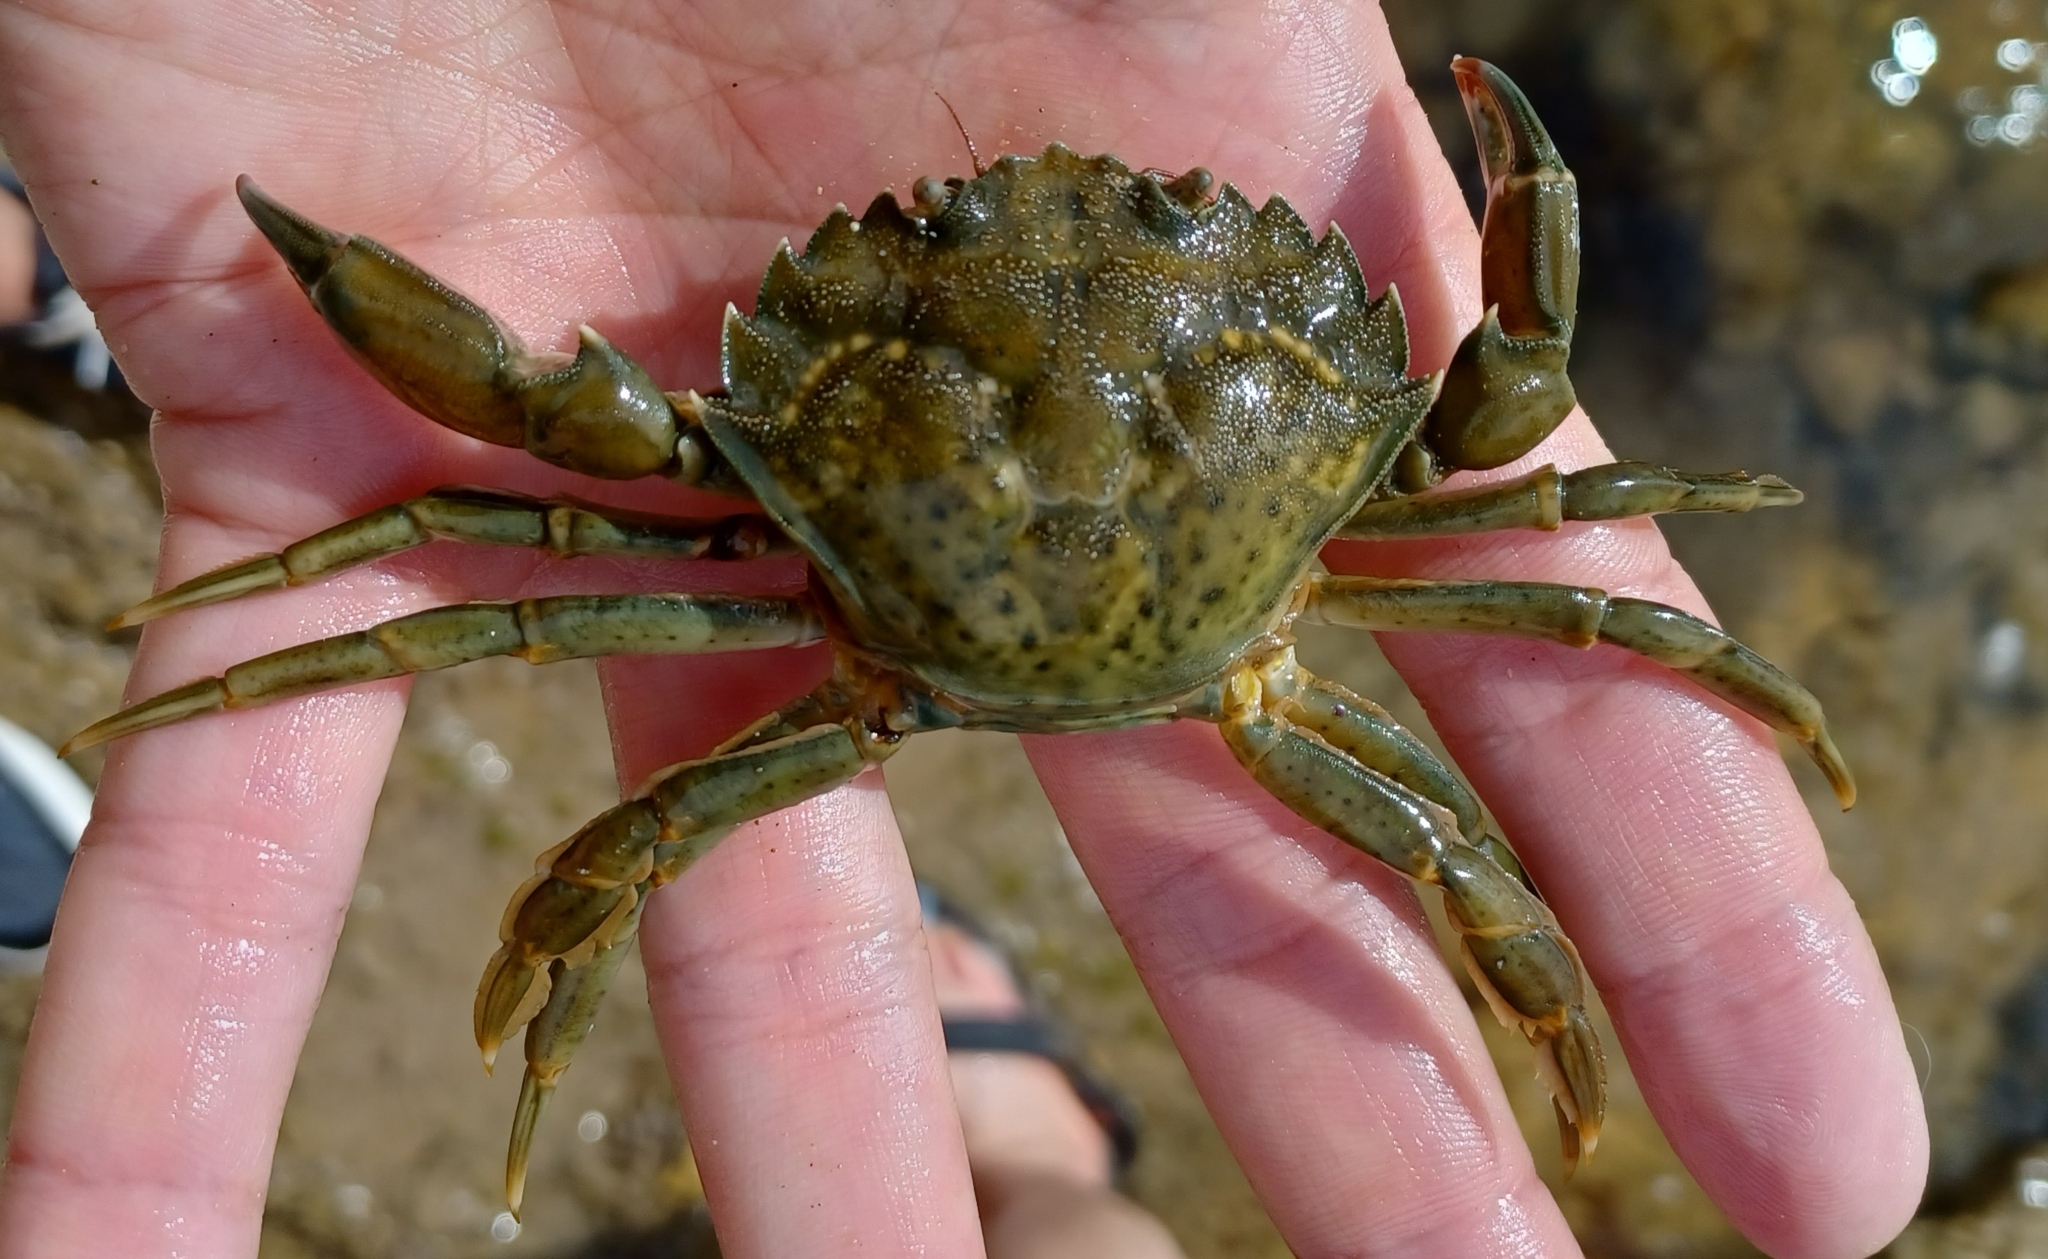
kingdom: Animalia
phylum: Arthropoda
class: Malacostraca
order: Decapoda
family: Carcinidae
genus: Carcinus
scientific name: Carcinus maenas
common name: European green crab
